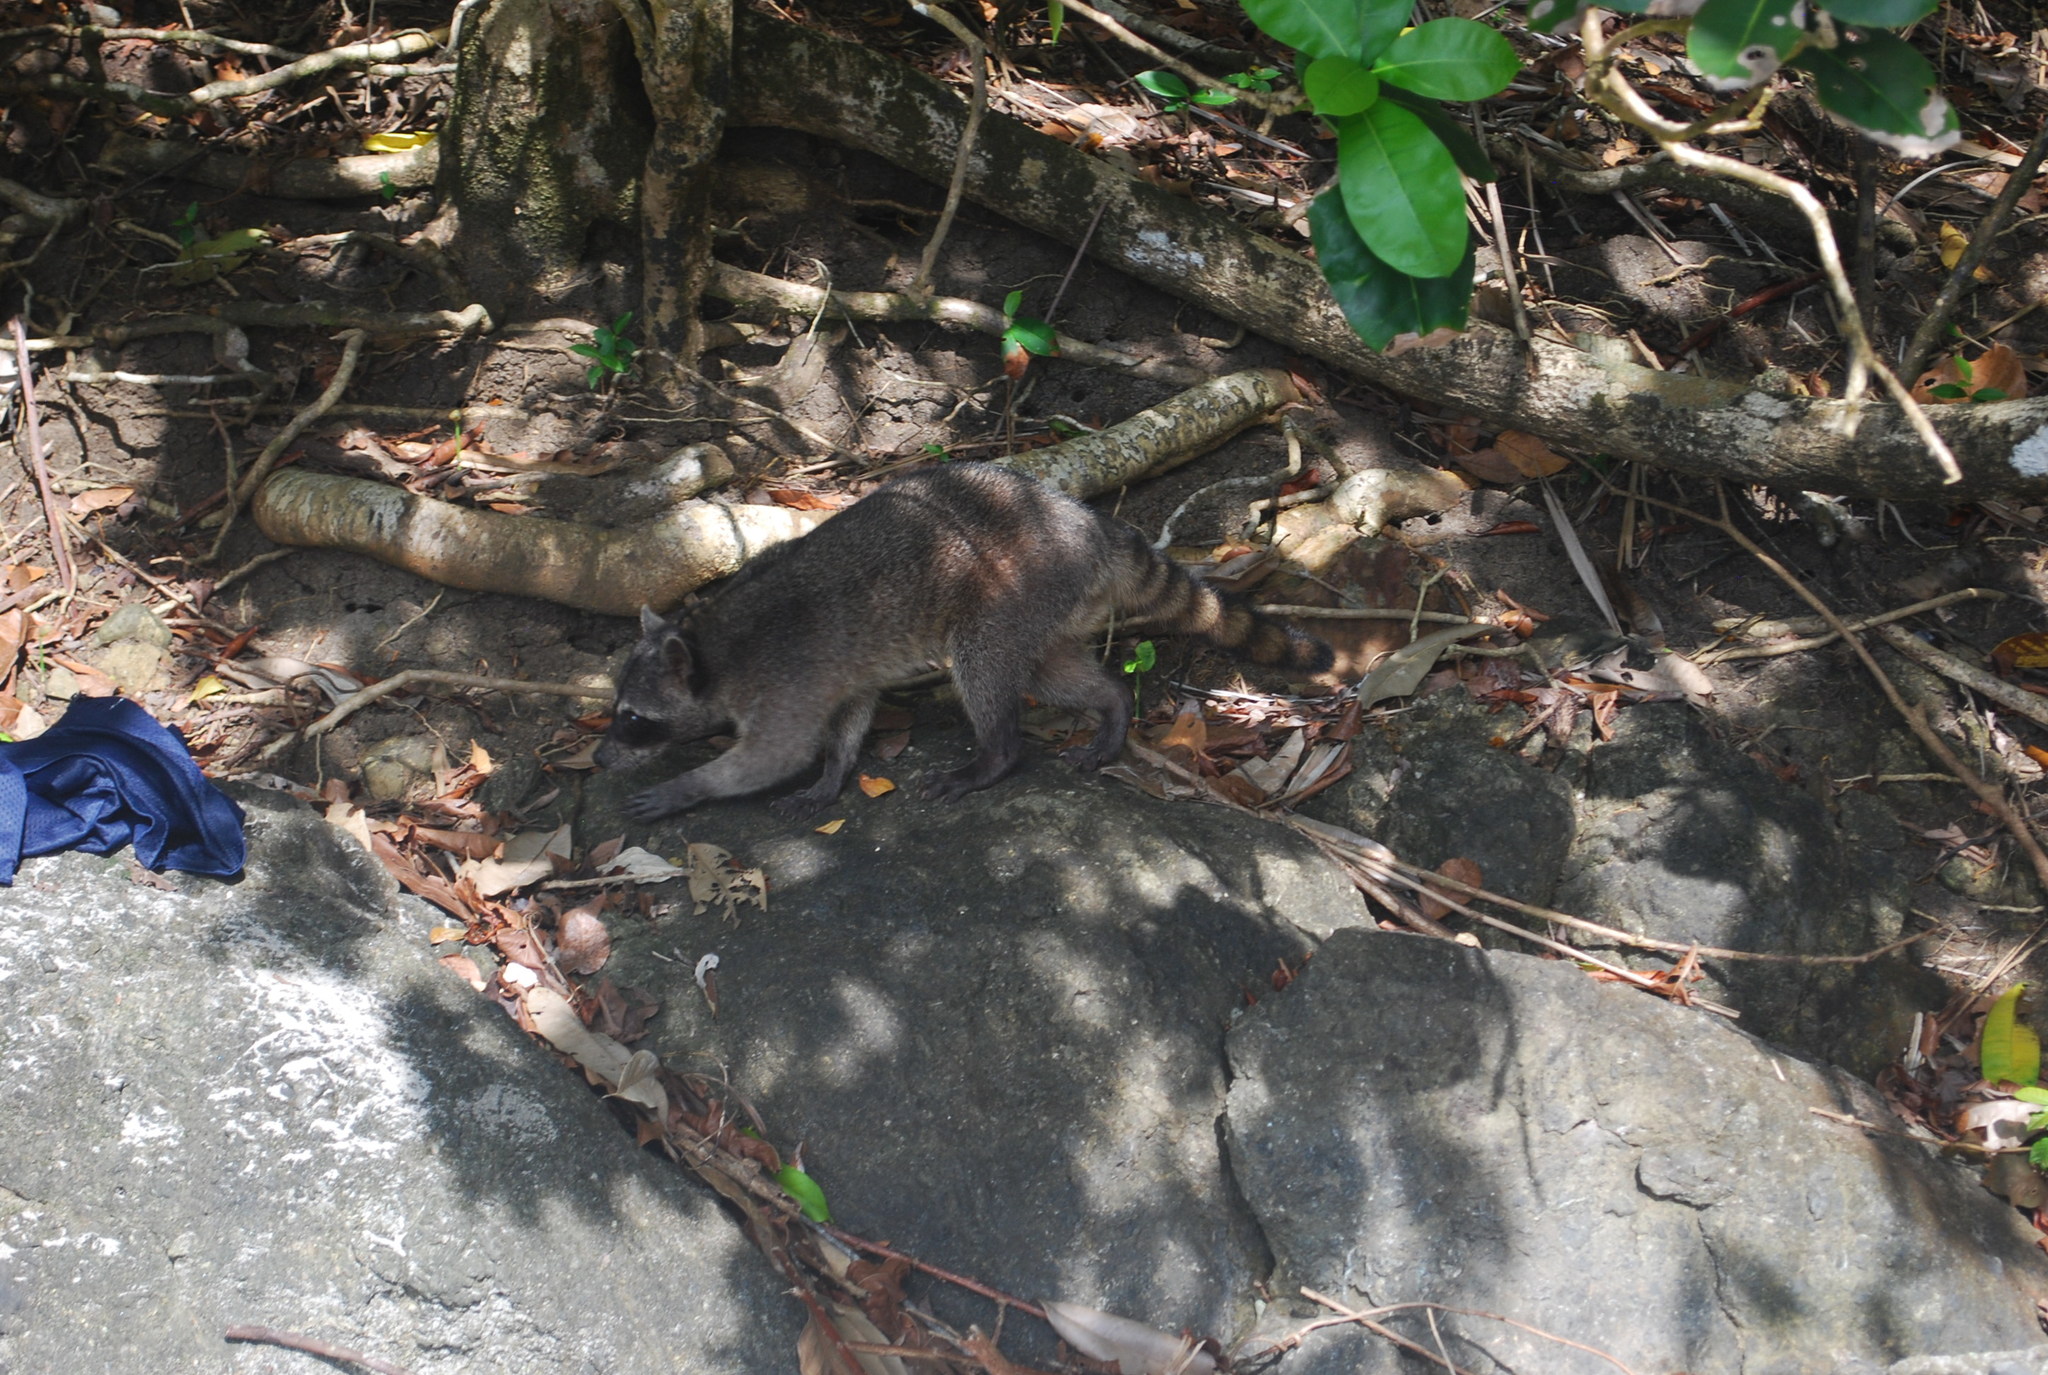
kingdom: Animalia
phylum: Chordata
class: Mammalia
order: Carnivora
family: Procyonidae
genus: Procyon
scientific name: Procyon lotor
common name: Raccoon
